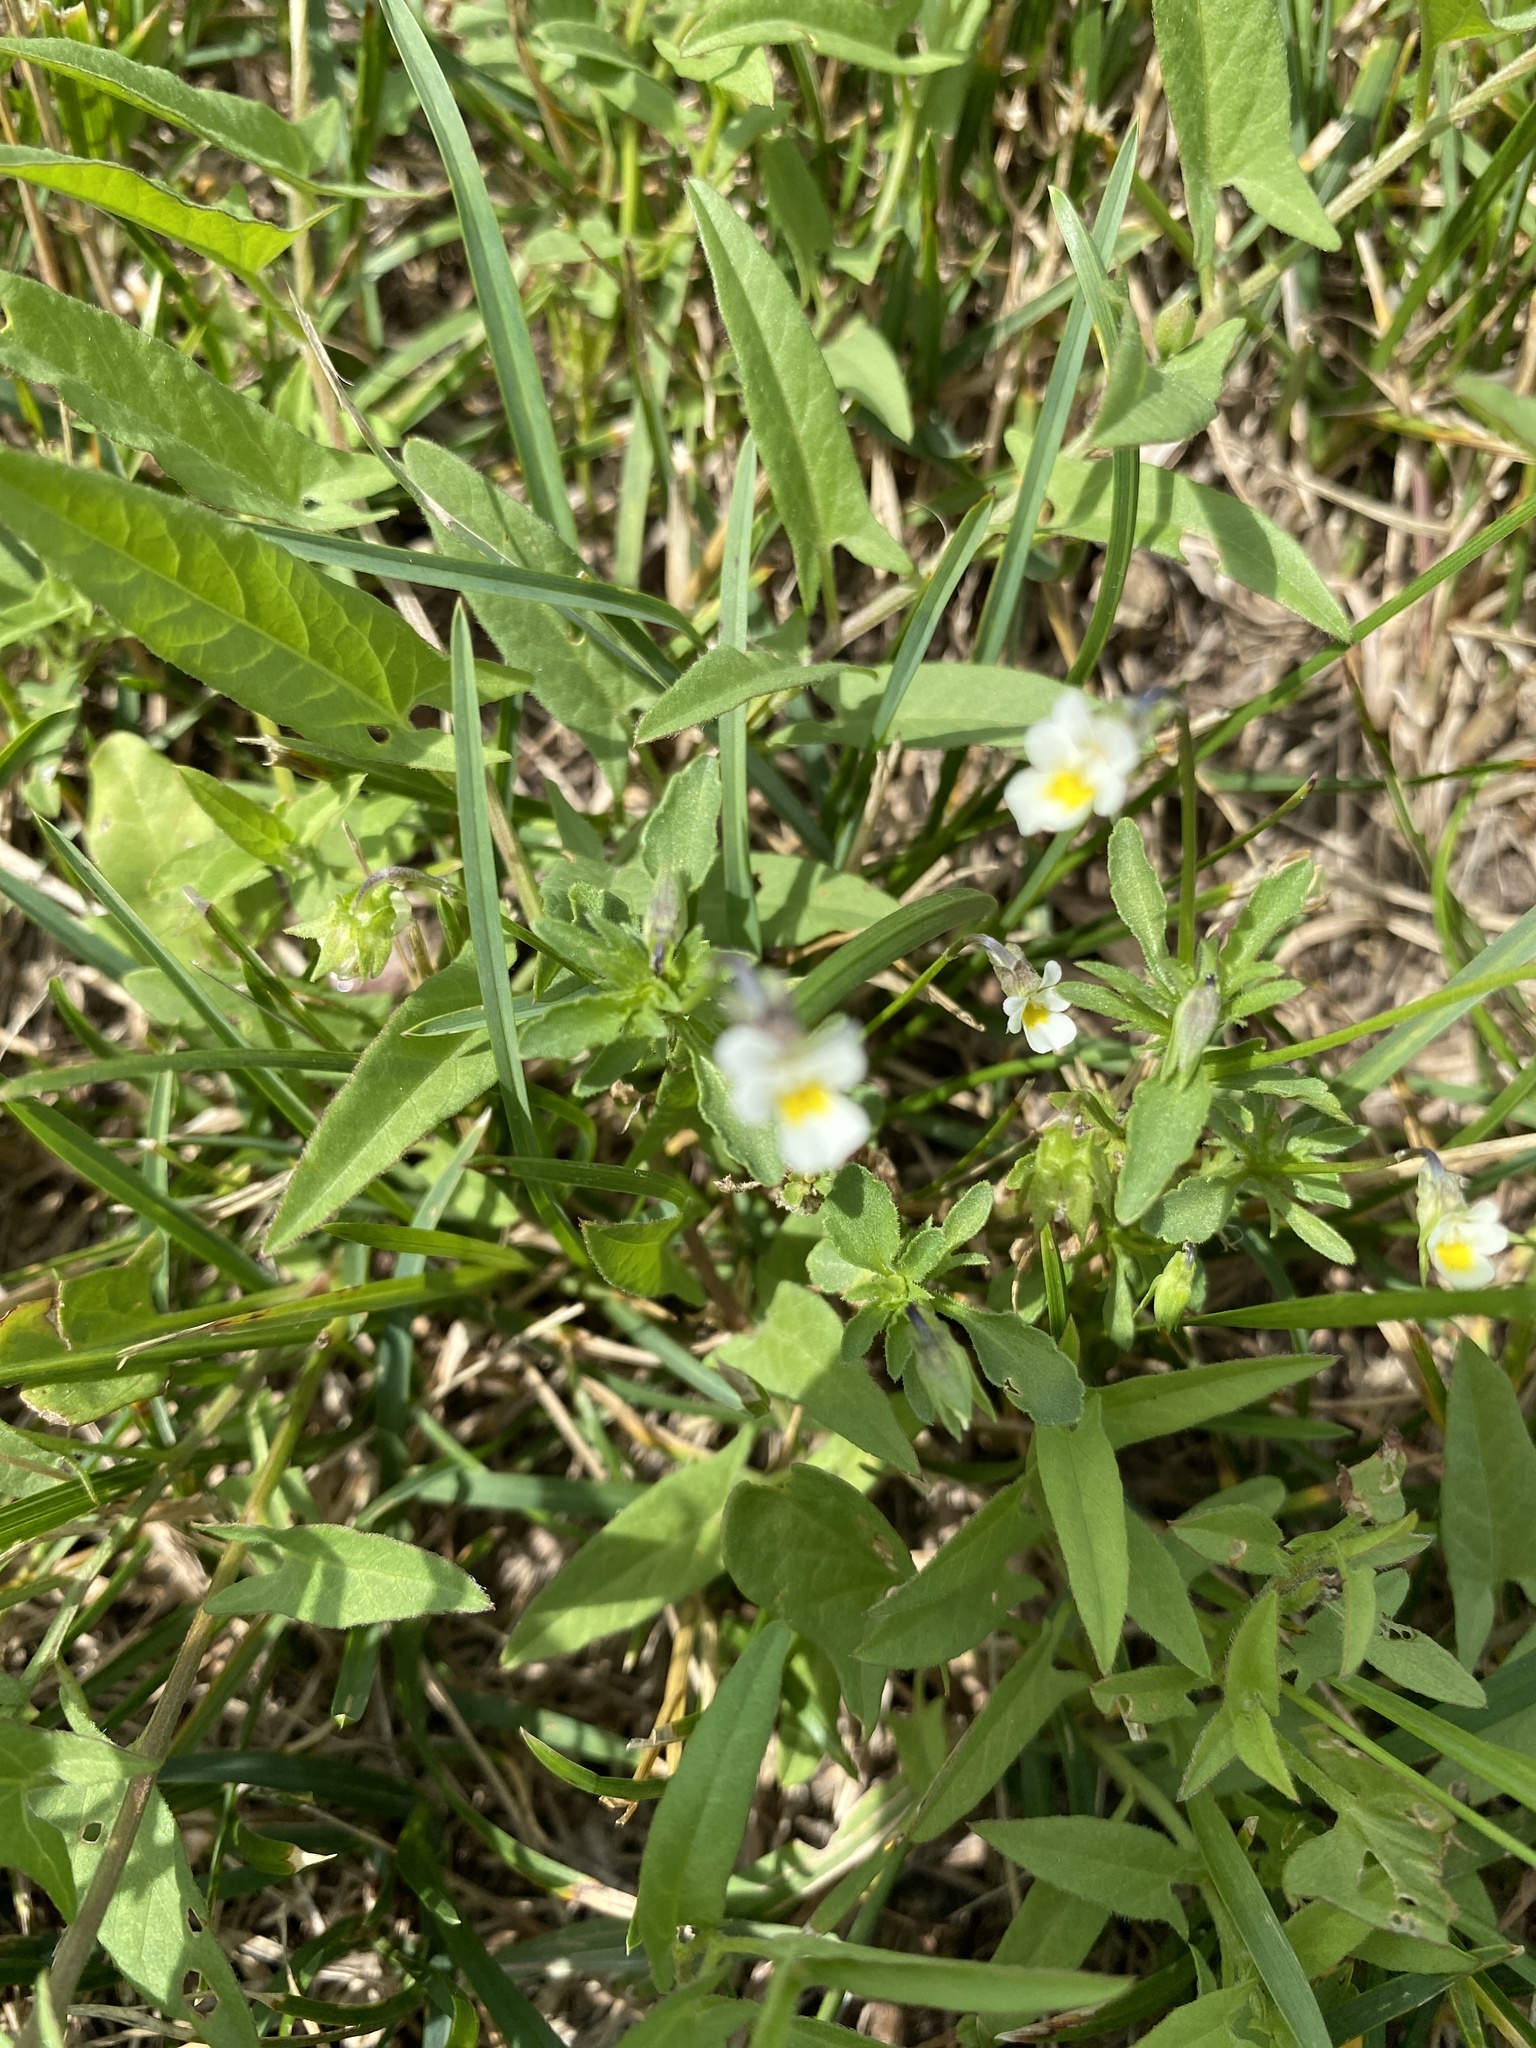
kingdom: Plantae
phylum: Tracheophyta
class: Magnoliopsida
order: Malpighiales
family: Violaceae
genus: Viola
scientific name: Viola arvensis
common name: Field pansy
